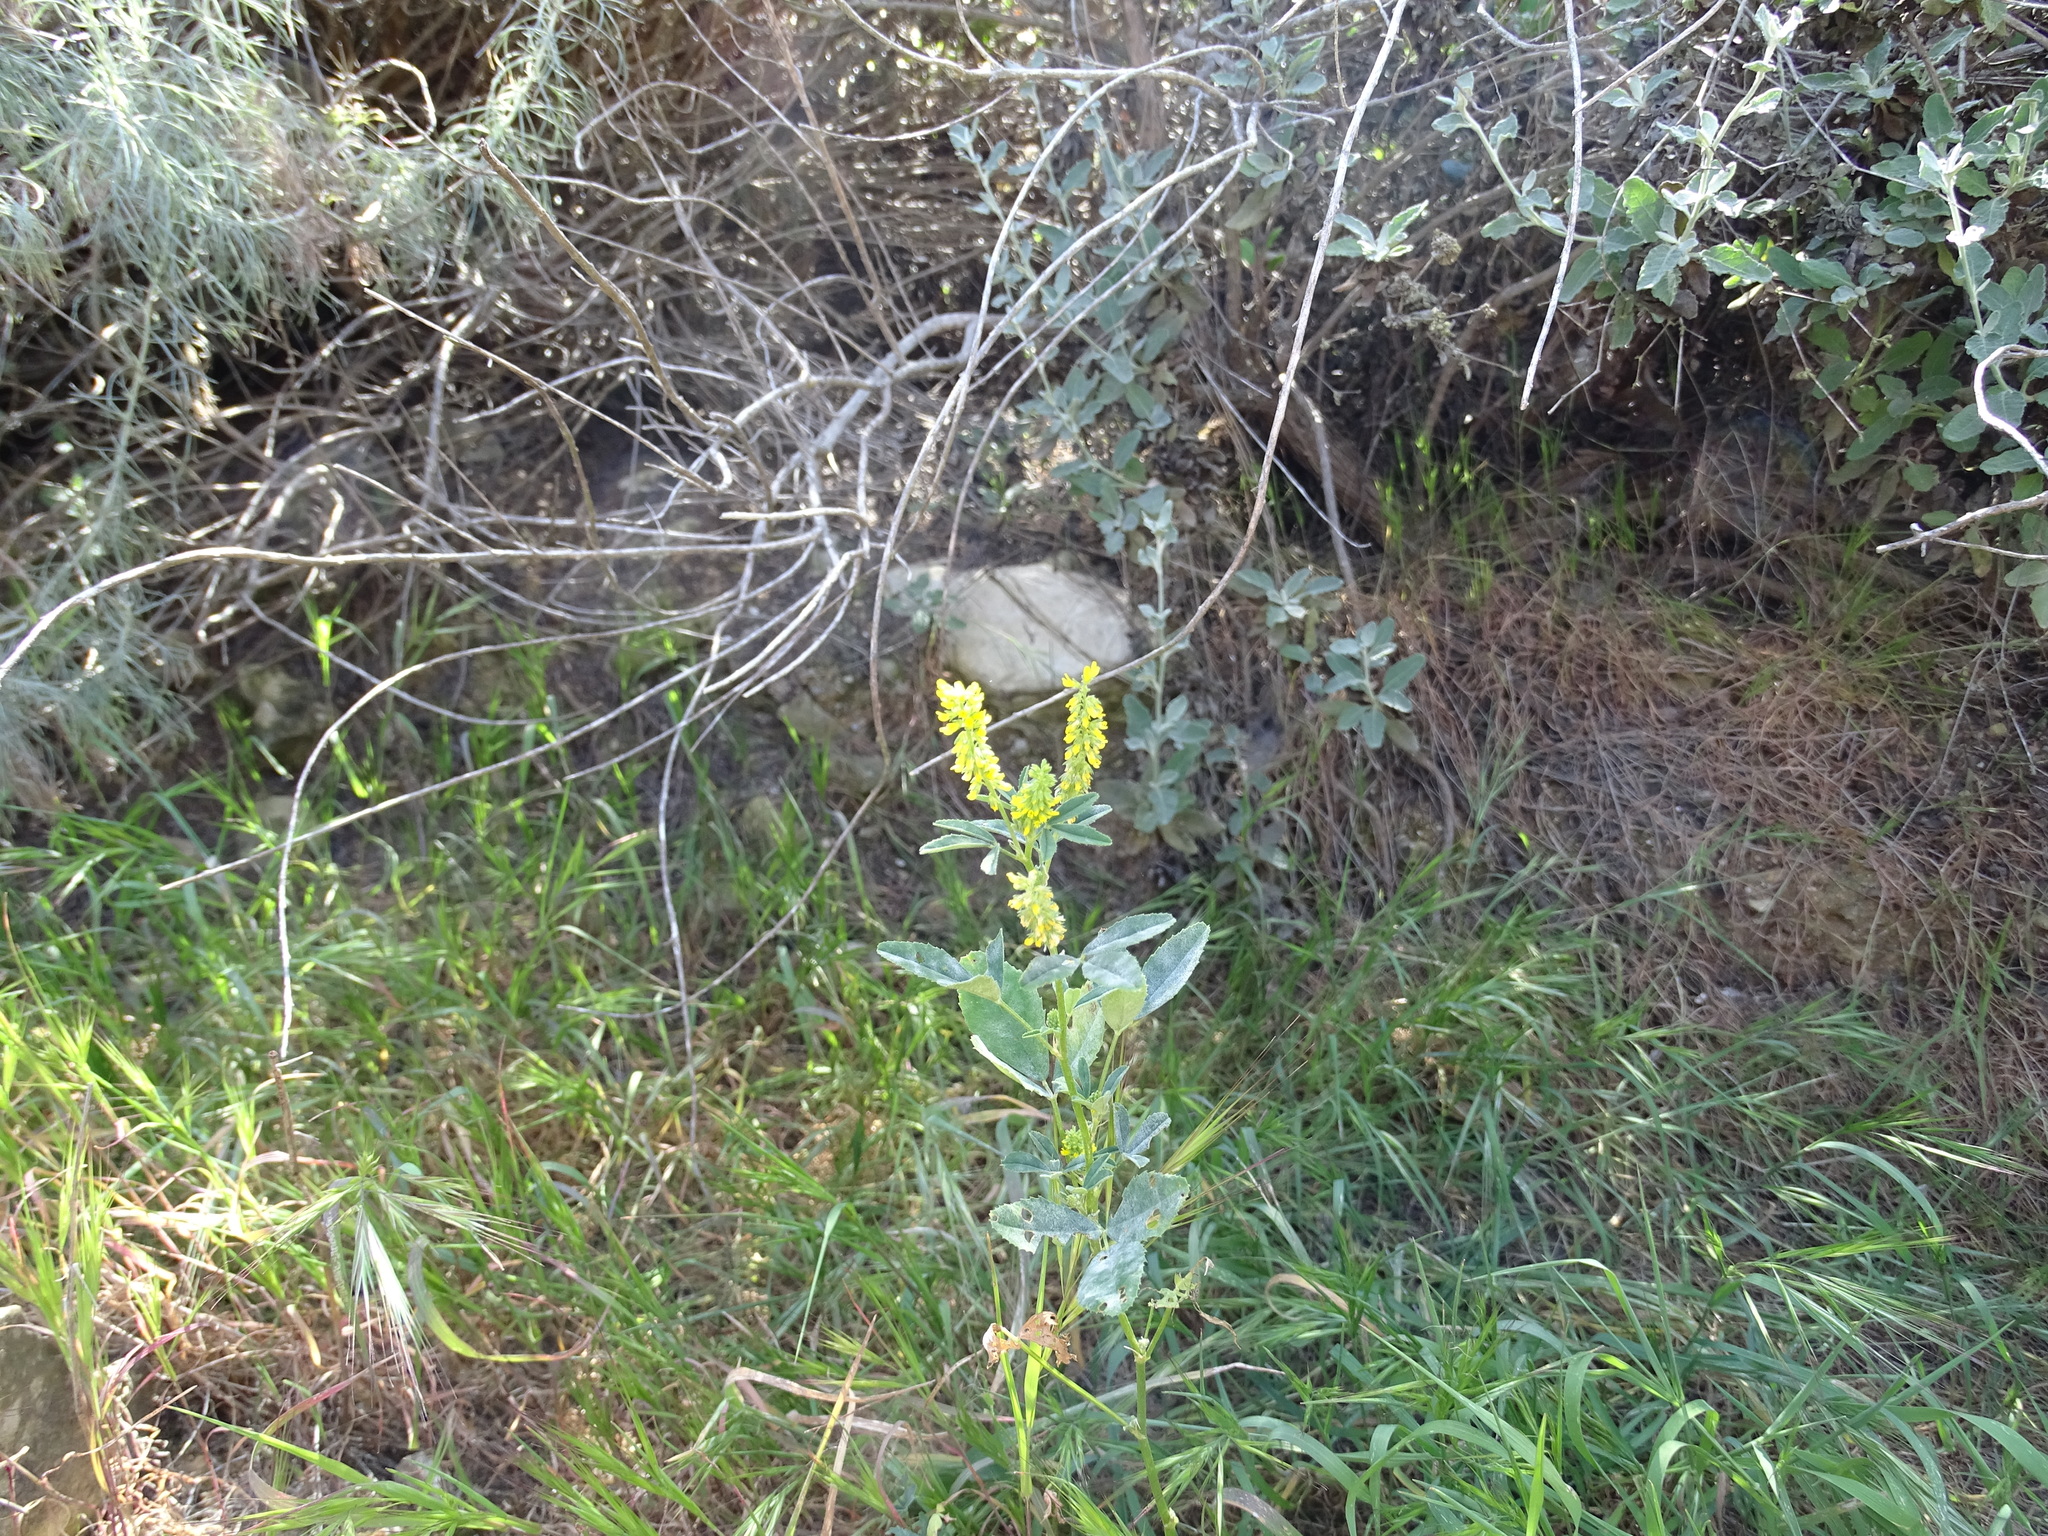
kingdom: Plantae
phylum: Tracheophyta
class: Magnoliopsida
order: Fabales
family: Fabaceae
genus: Melilotus
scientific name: Melilotus indicus
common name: Small melilot
